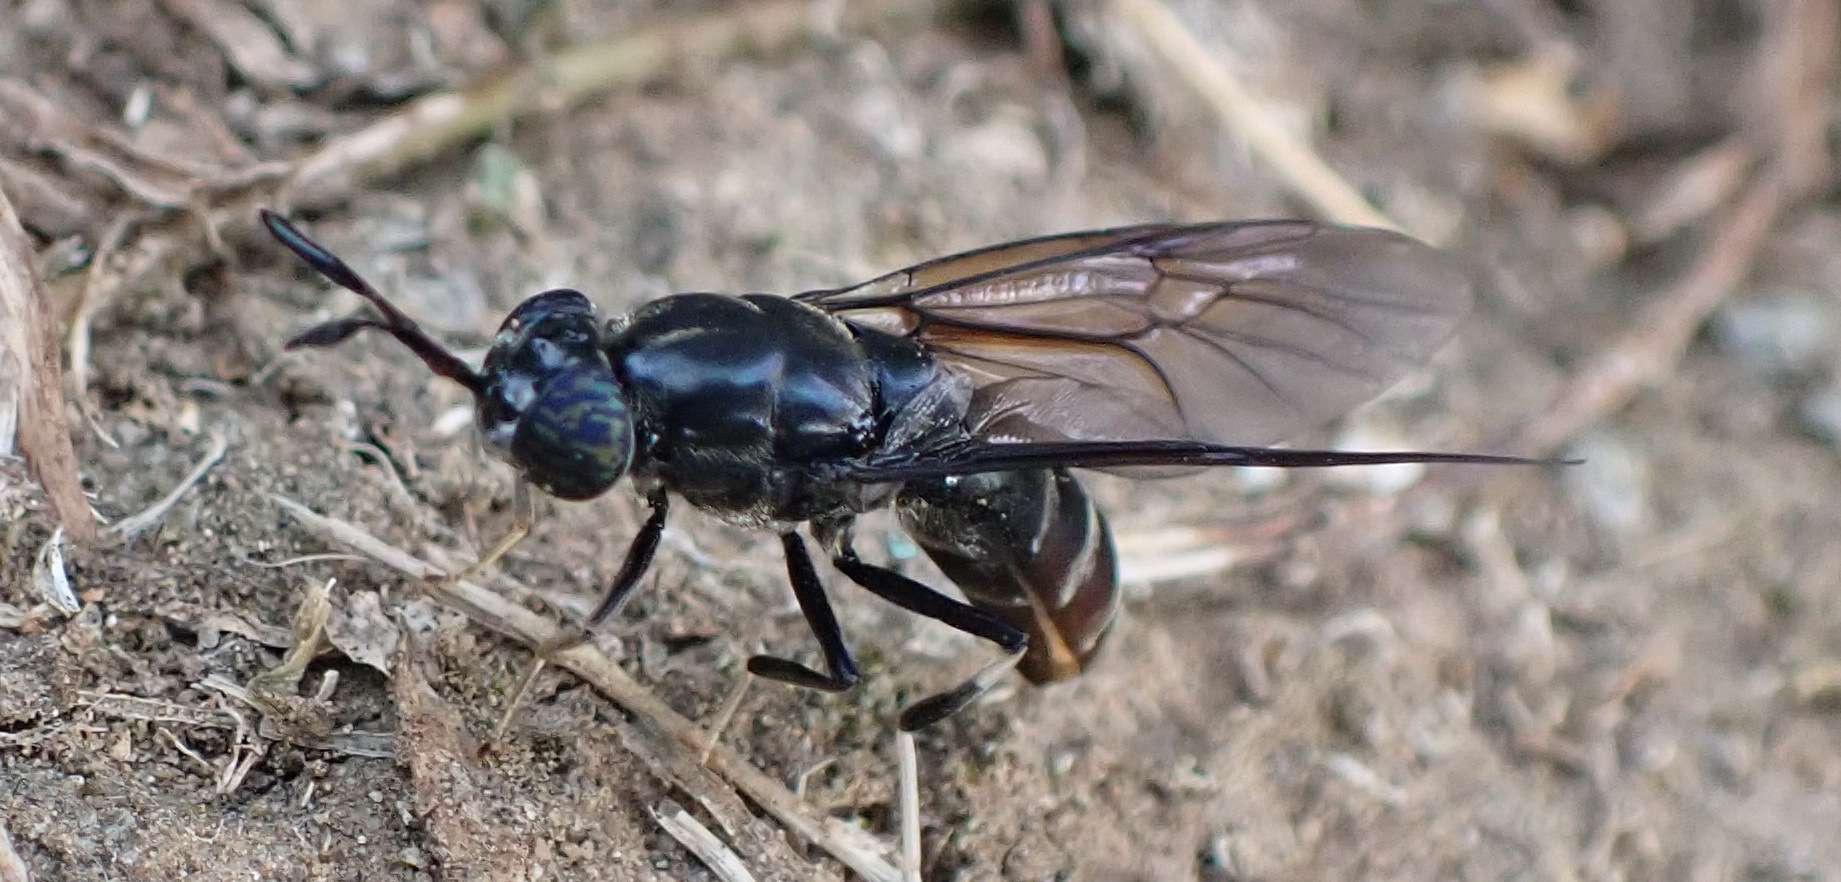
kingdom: Animalia
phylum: Arthropoda
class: Insecta
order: Diptera
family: Stratiomyidae
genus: Hermetia
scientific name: Hermetia illucens
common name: Black soldier fly
